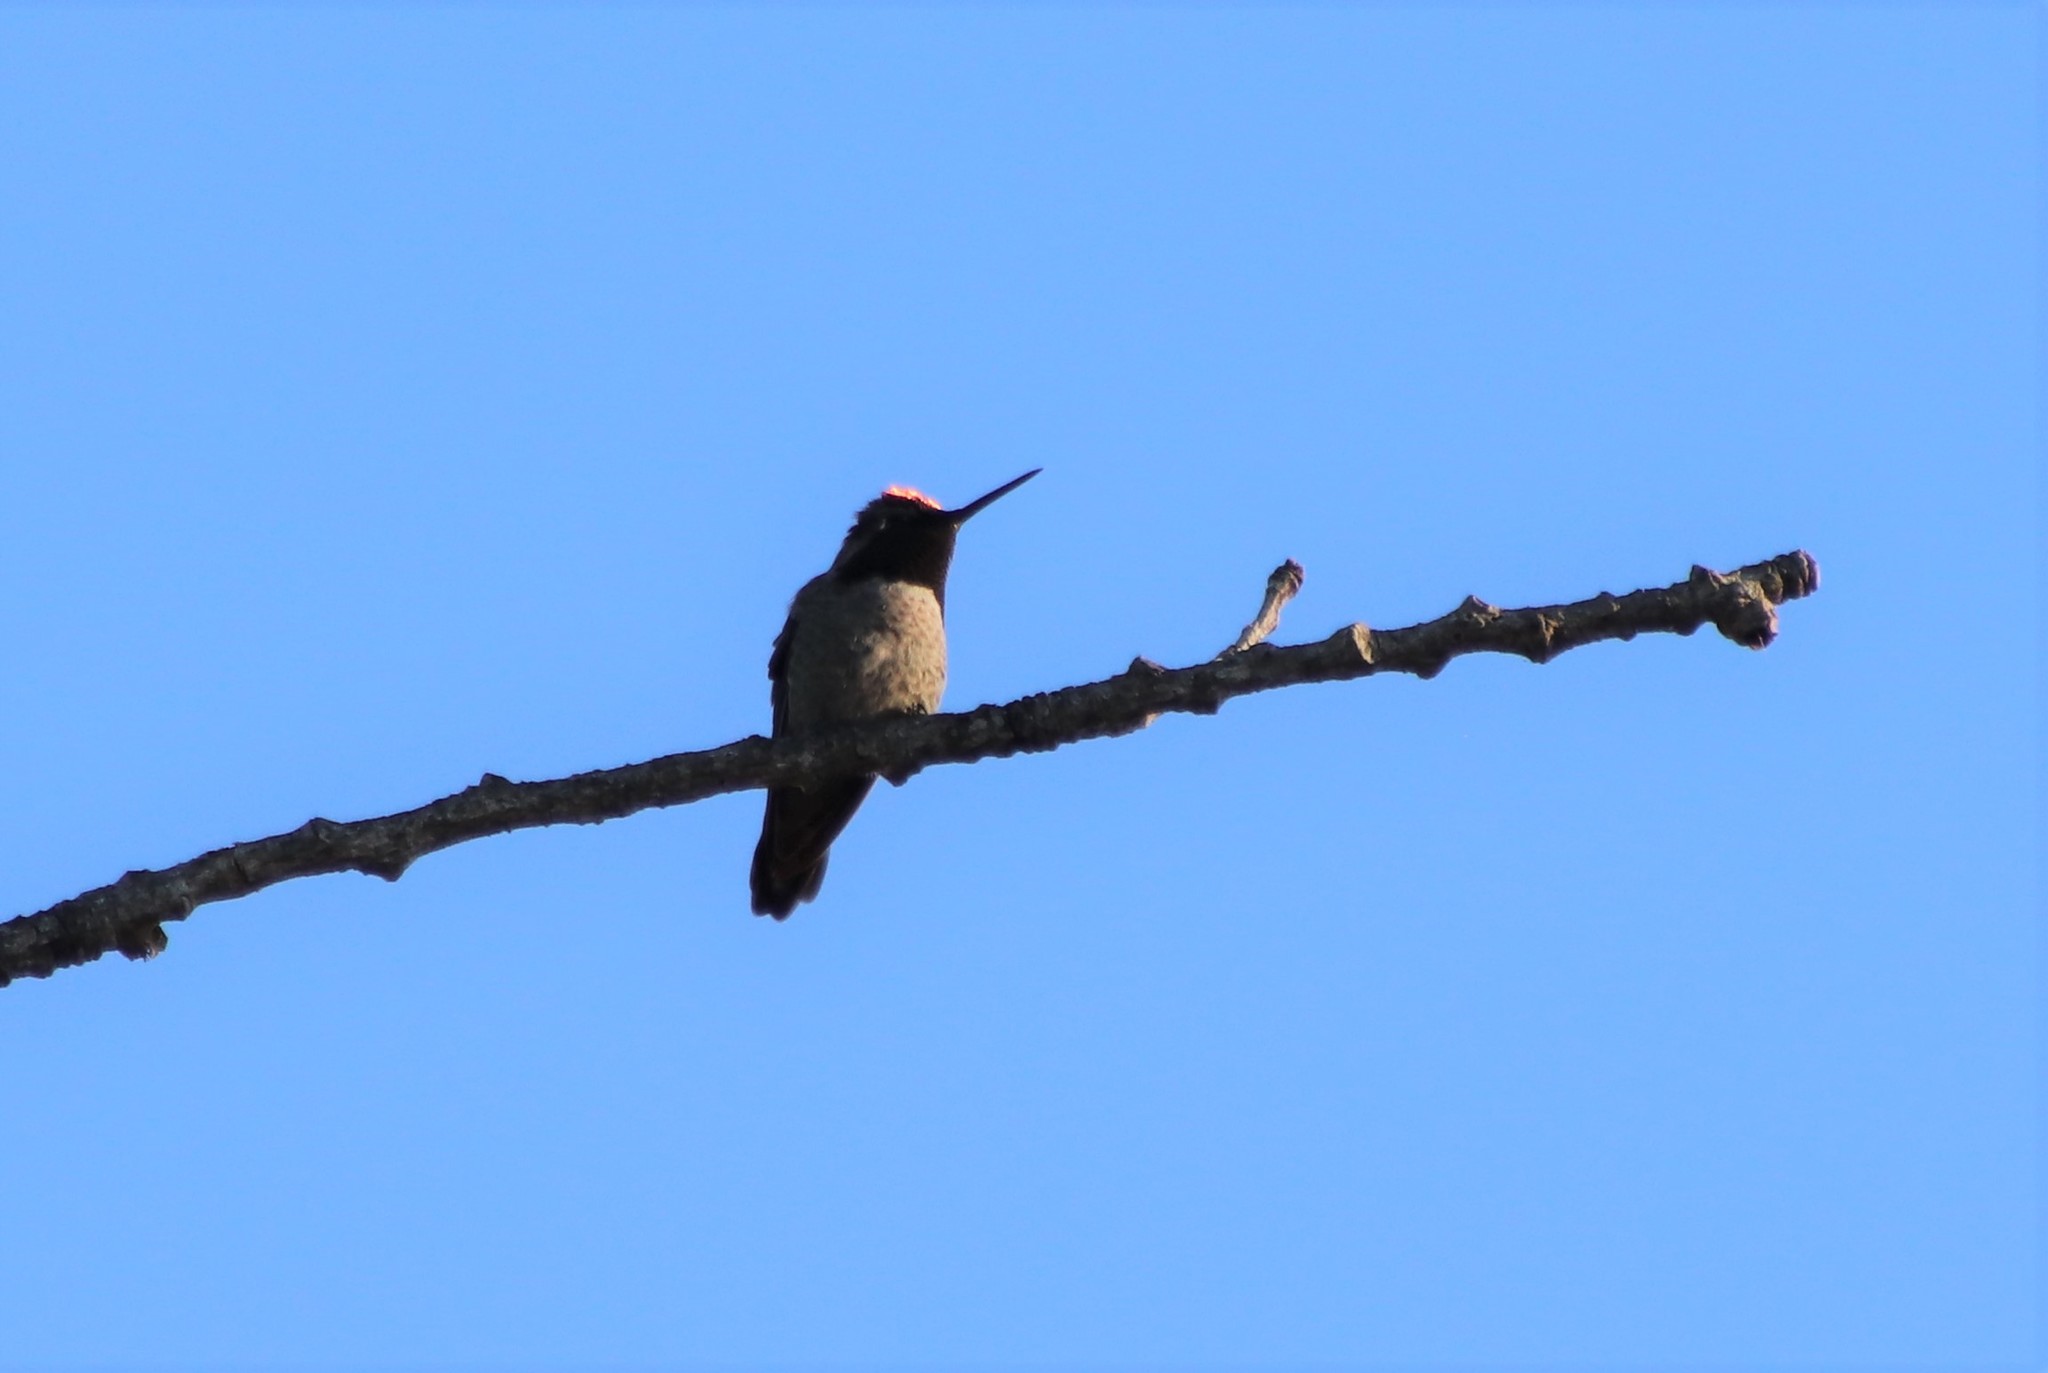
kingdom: Animalia
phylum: Chordata
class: Aves
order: Apodiformes
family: Trochilidae
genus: Calypte
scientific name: Calypte anna
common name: Anna's hummingbird
